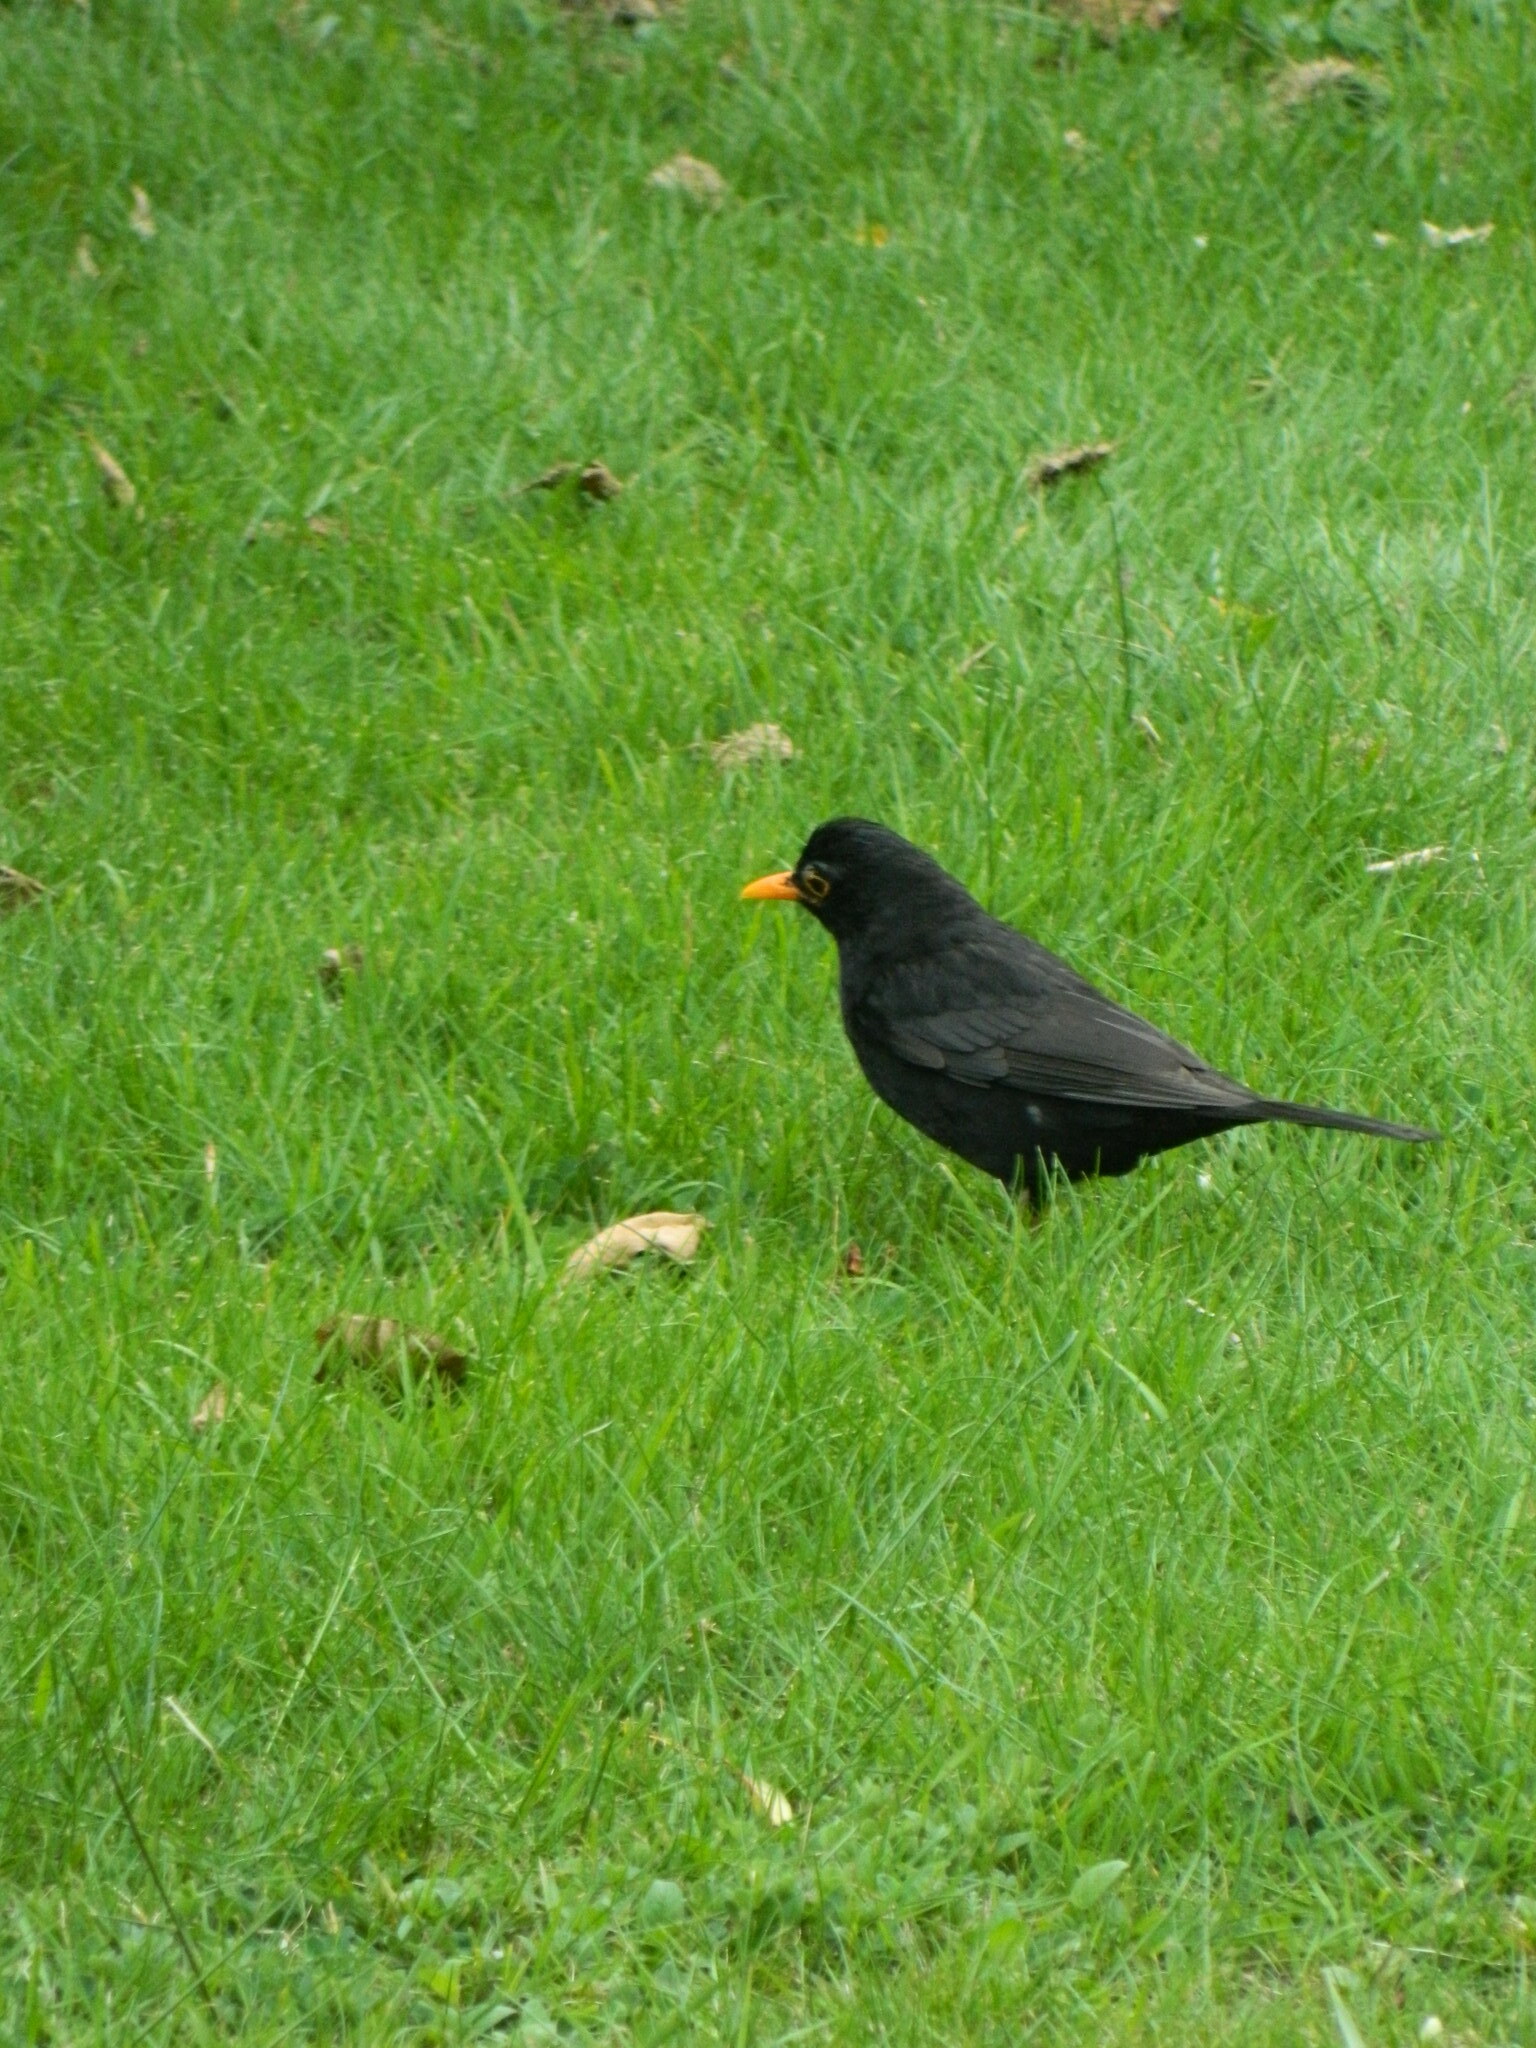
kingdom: Animalia
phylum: Chordata
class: Aves
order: Passeriformes
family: Turdidae
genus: Turdus
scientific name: Turdus merula
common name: Common blackbird
